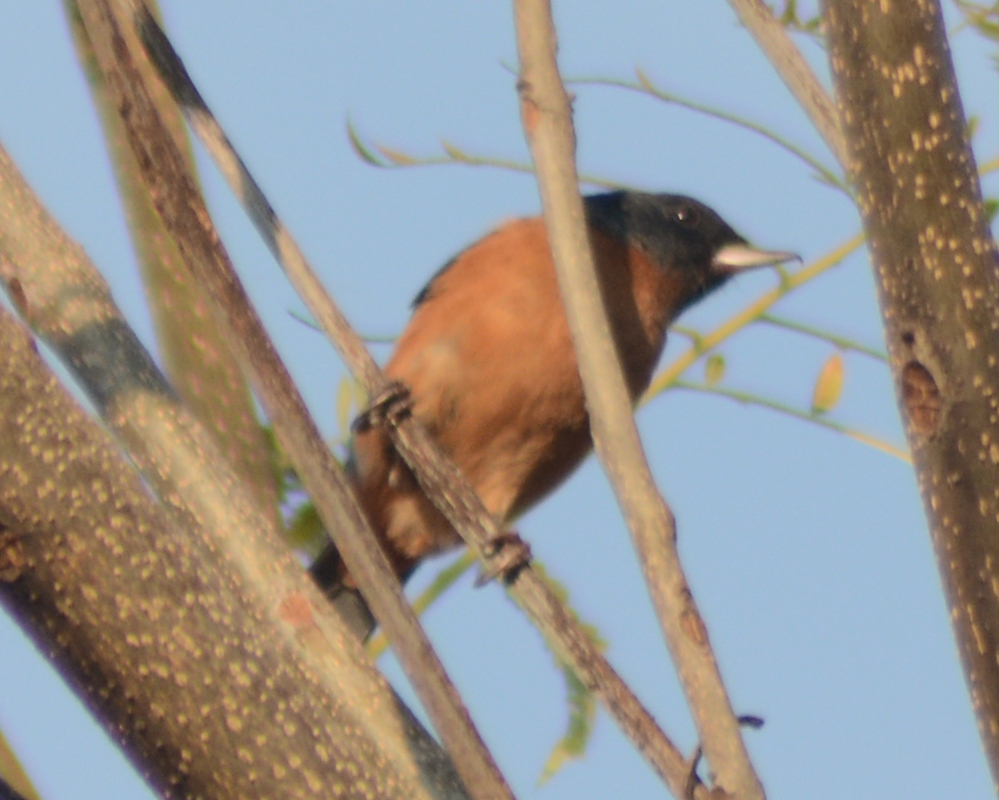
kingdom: Animalia
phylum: Chordata
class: Aves
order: Passeriformes
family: Thraupidae
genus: Diglossa
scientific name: Diglossa baritula
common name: Cinnamon-bellied flowerpiercer
